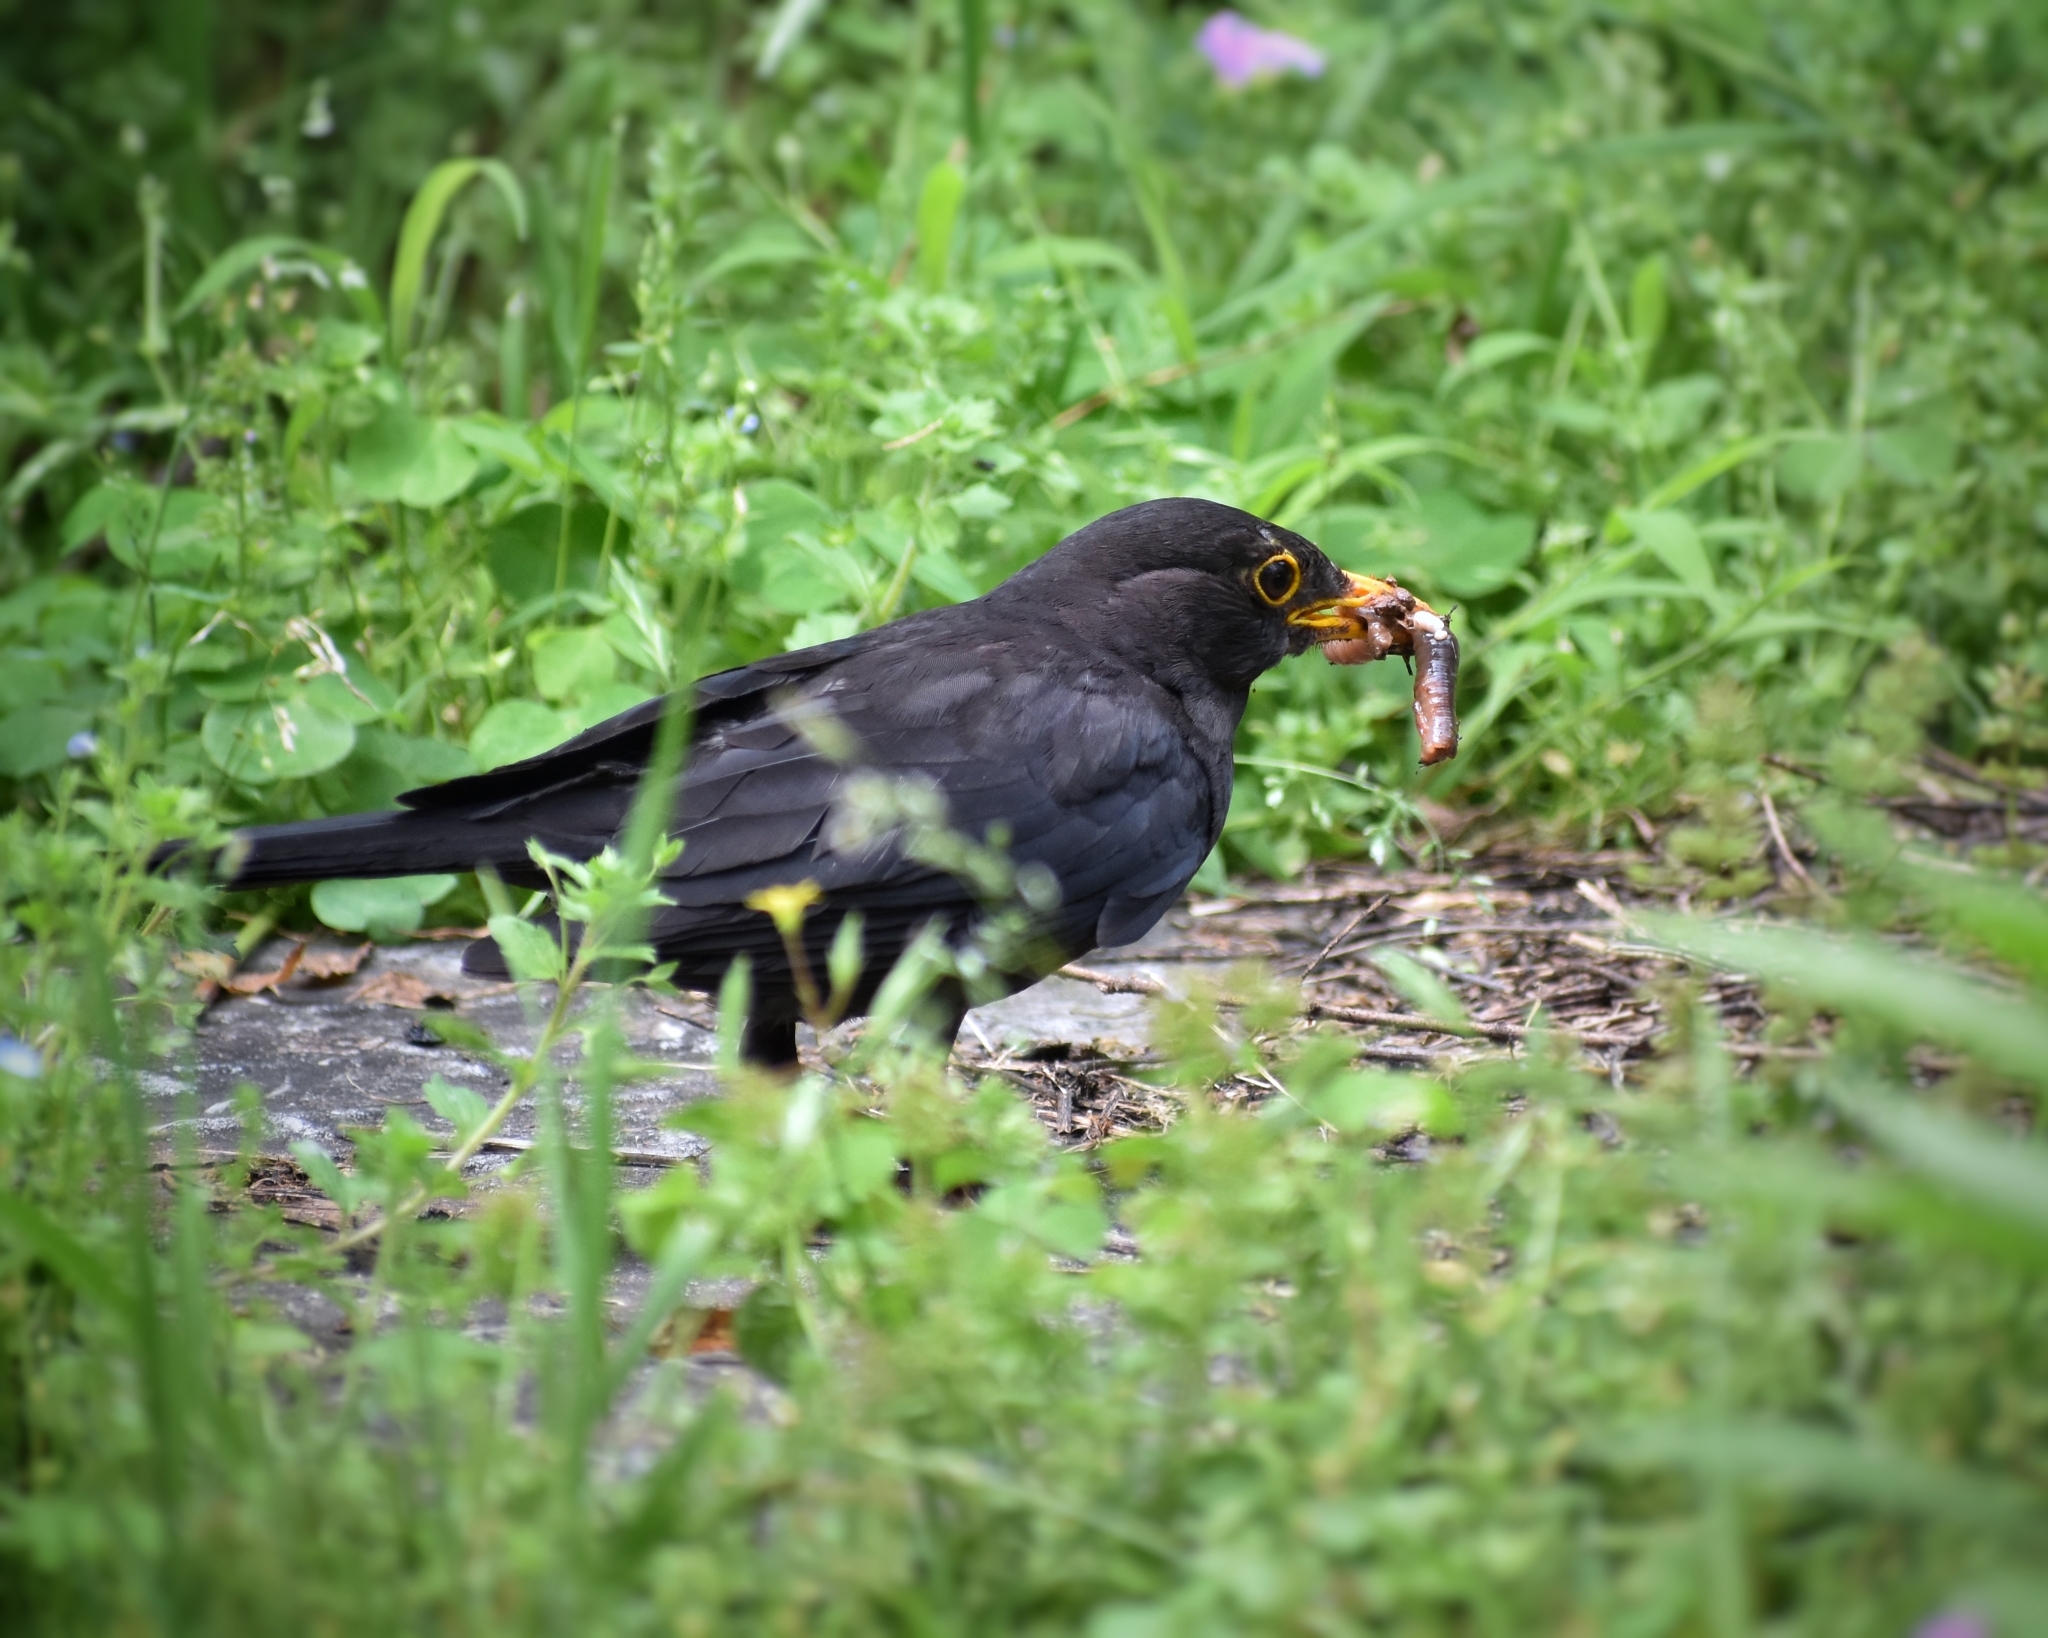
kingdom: Animalia
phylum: Chordata
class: Aves
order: Passeriformes
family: Turdidae
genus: Turdus
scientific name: Turdus mandarinus
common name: Chinese blackbird
